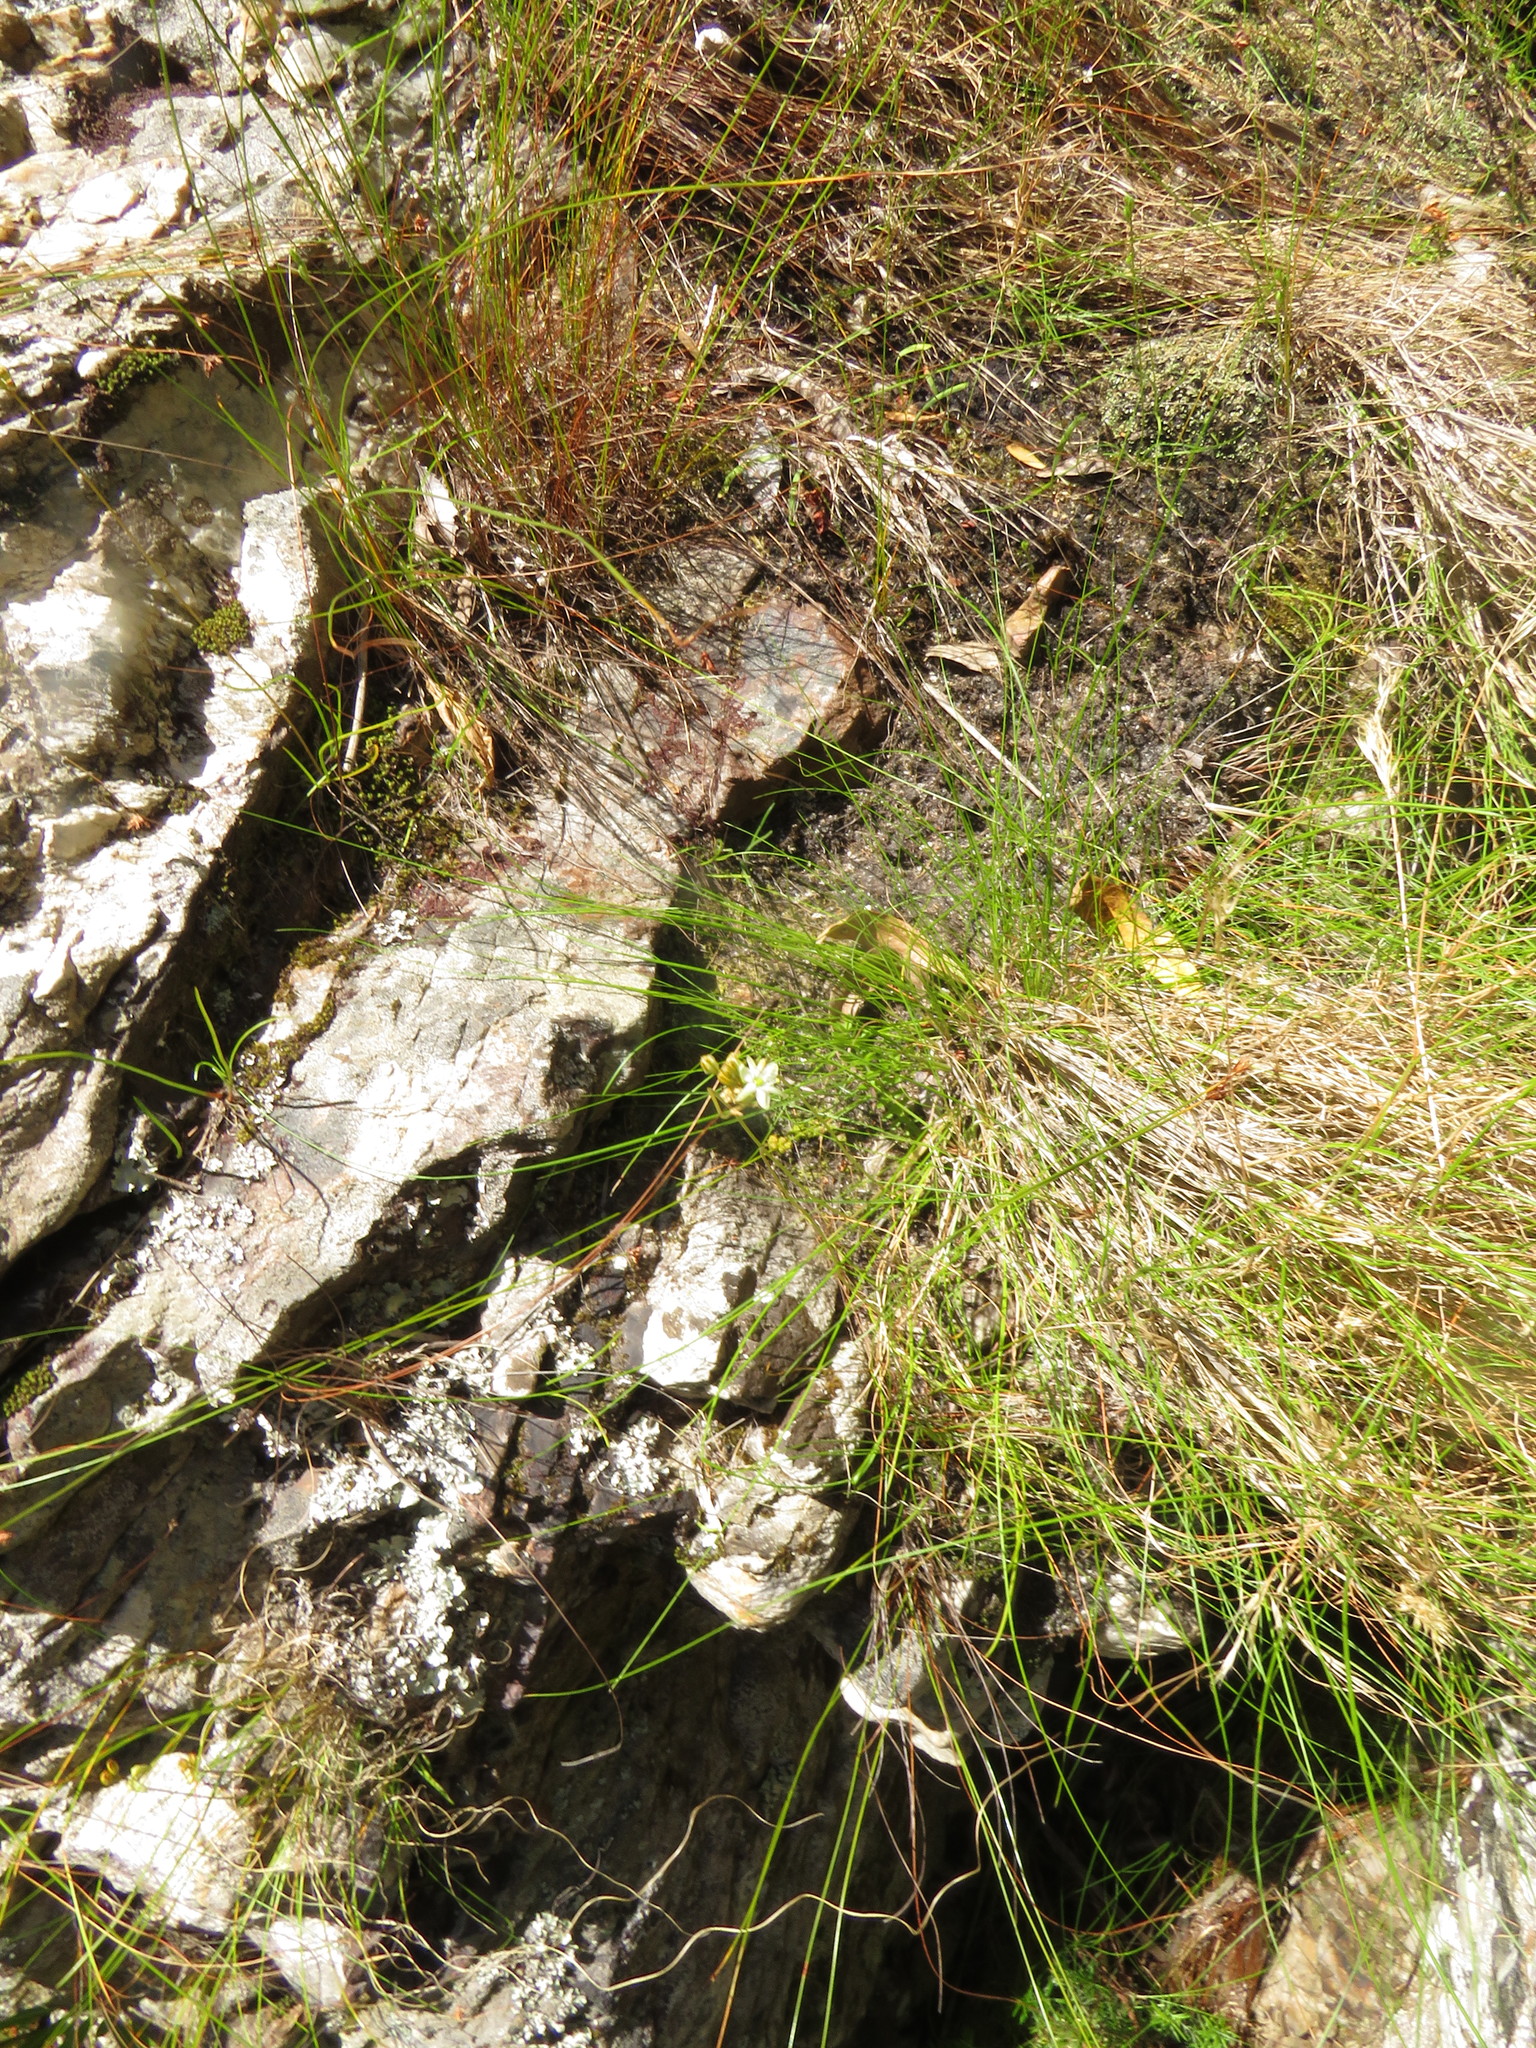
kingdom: Plantae
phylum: Tracheophyta
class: Liliopsida
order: Asparagales
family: Asparagaceae
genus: Drimia
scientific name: Drimia salteri
